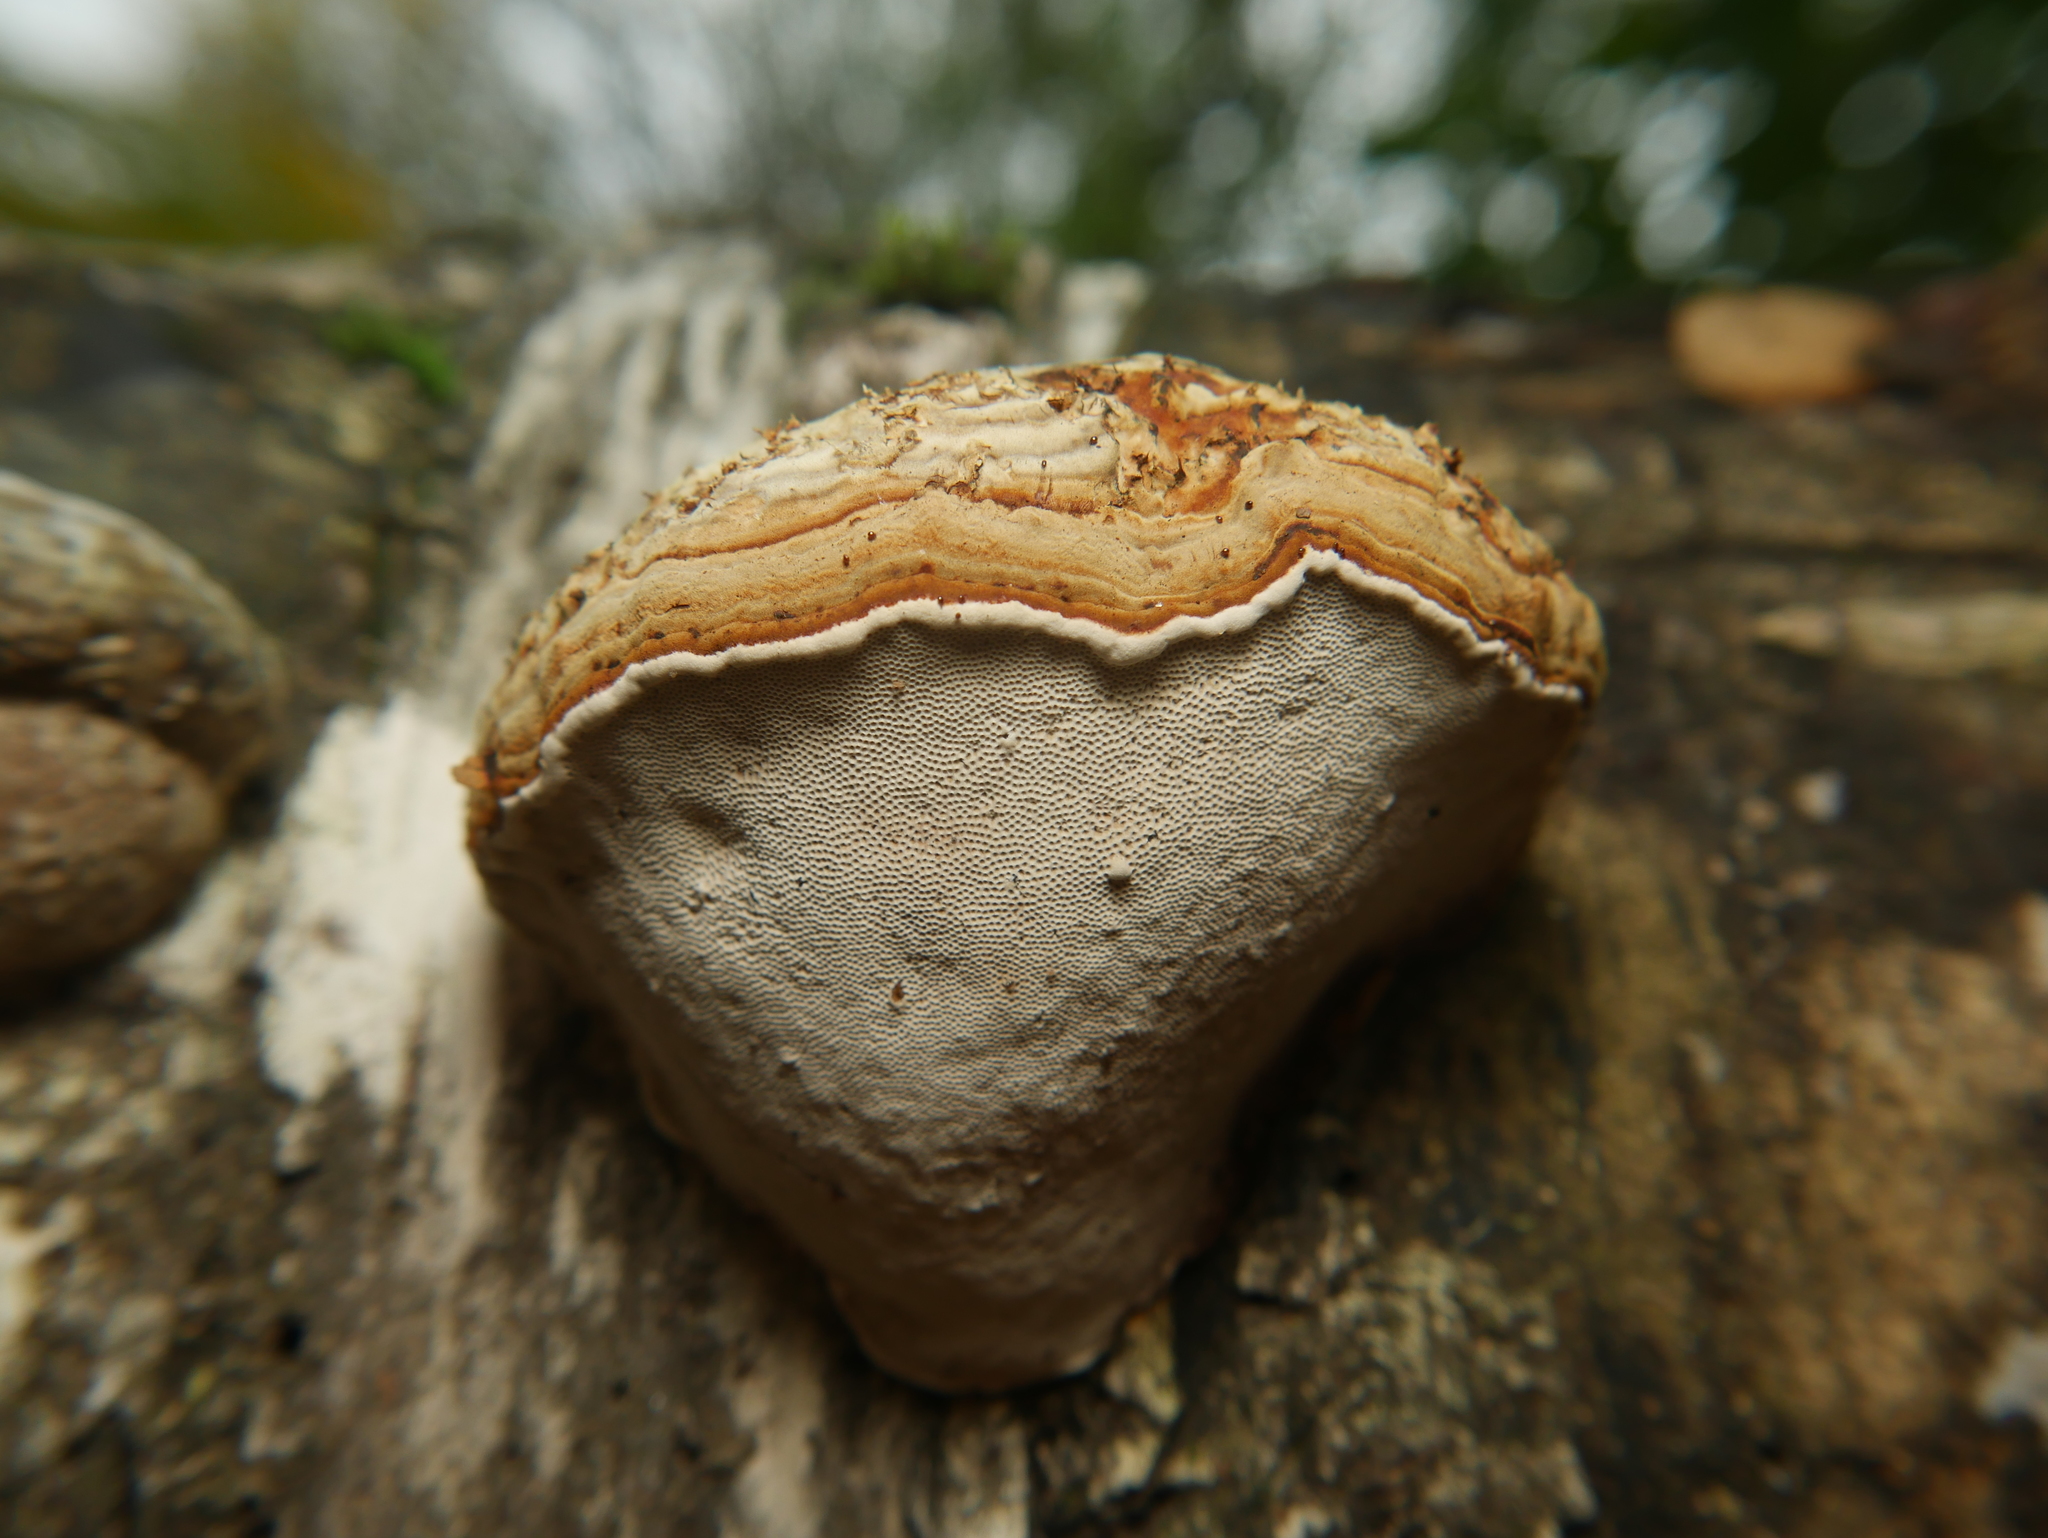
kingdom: Fungi
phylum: Basidiomycota
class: Agaricomycetes
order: Polyporales
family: Polyporaceae
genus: Fomes
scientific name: Fomes fomentarius
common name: Hoof fungus
